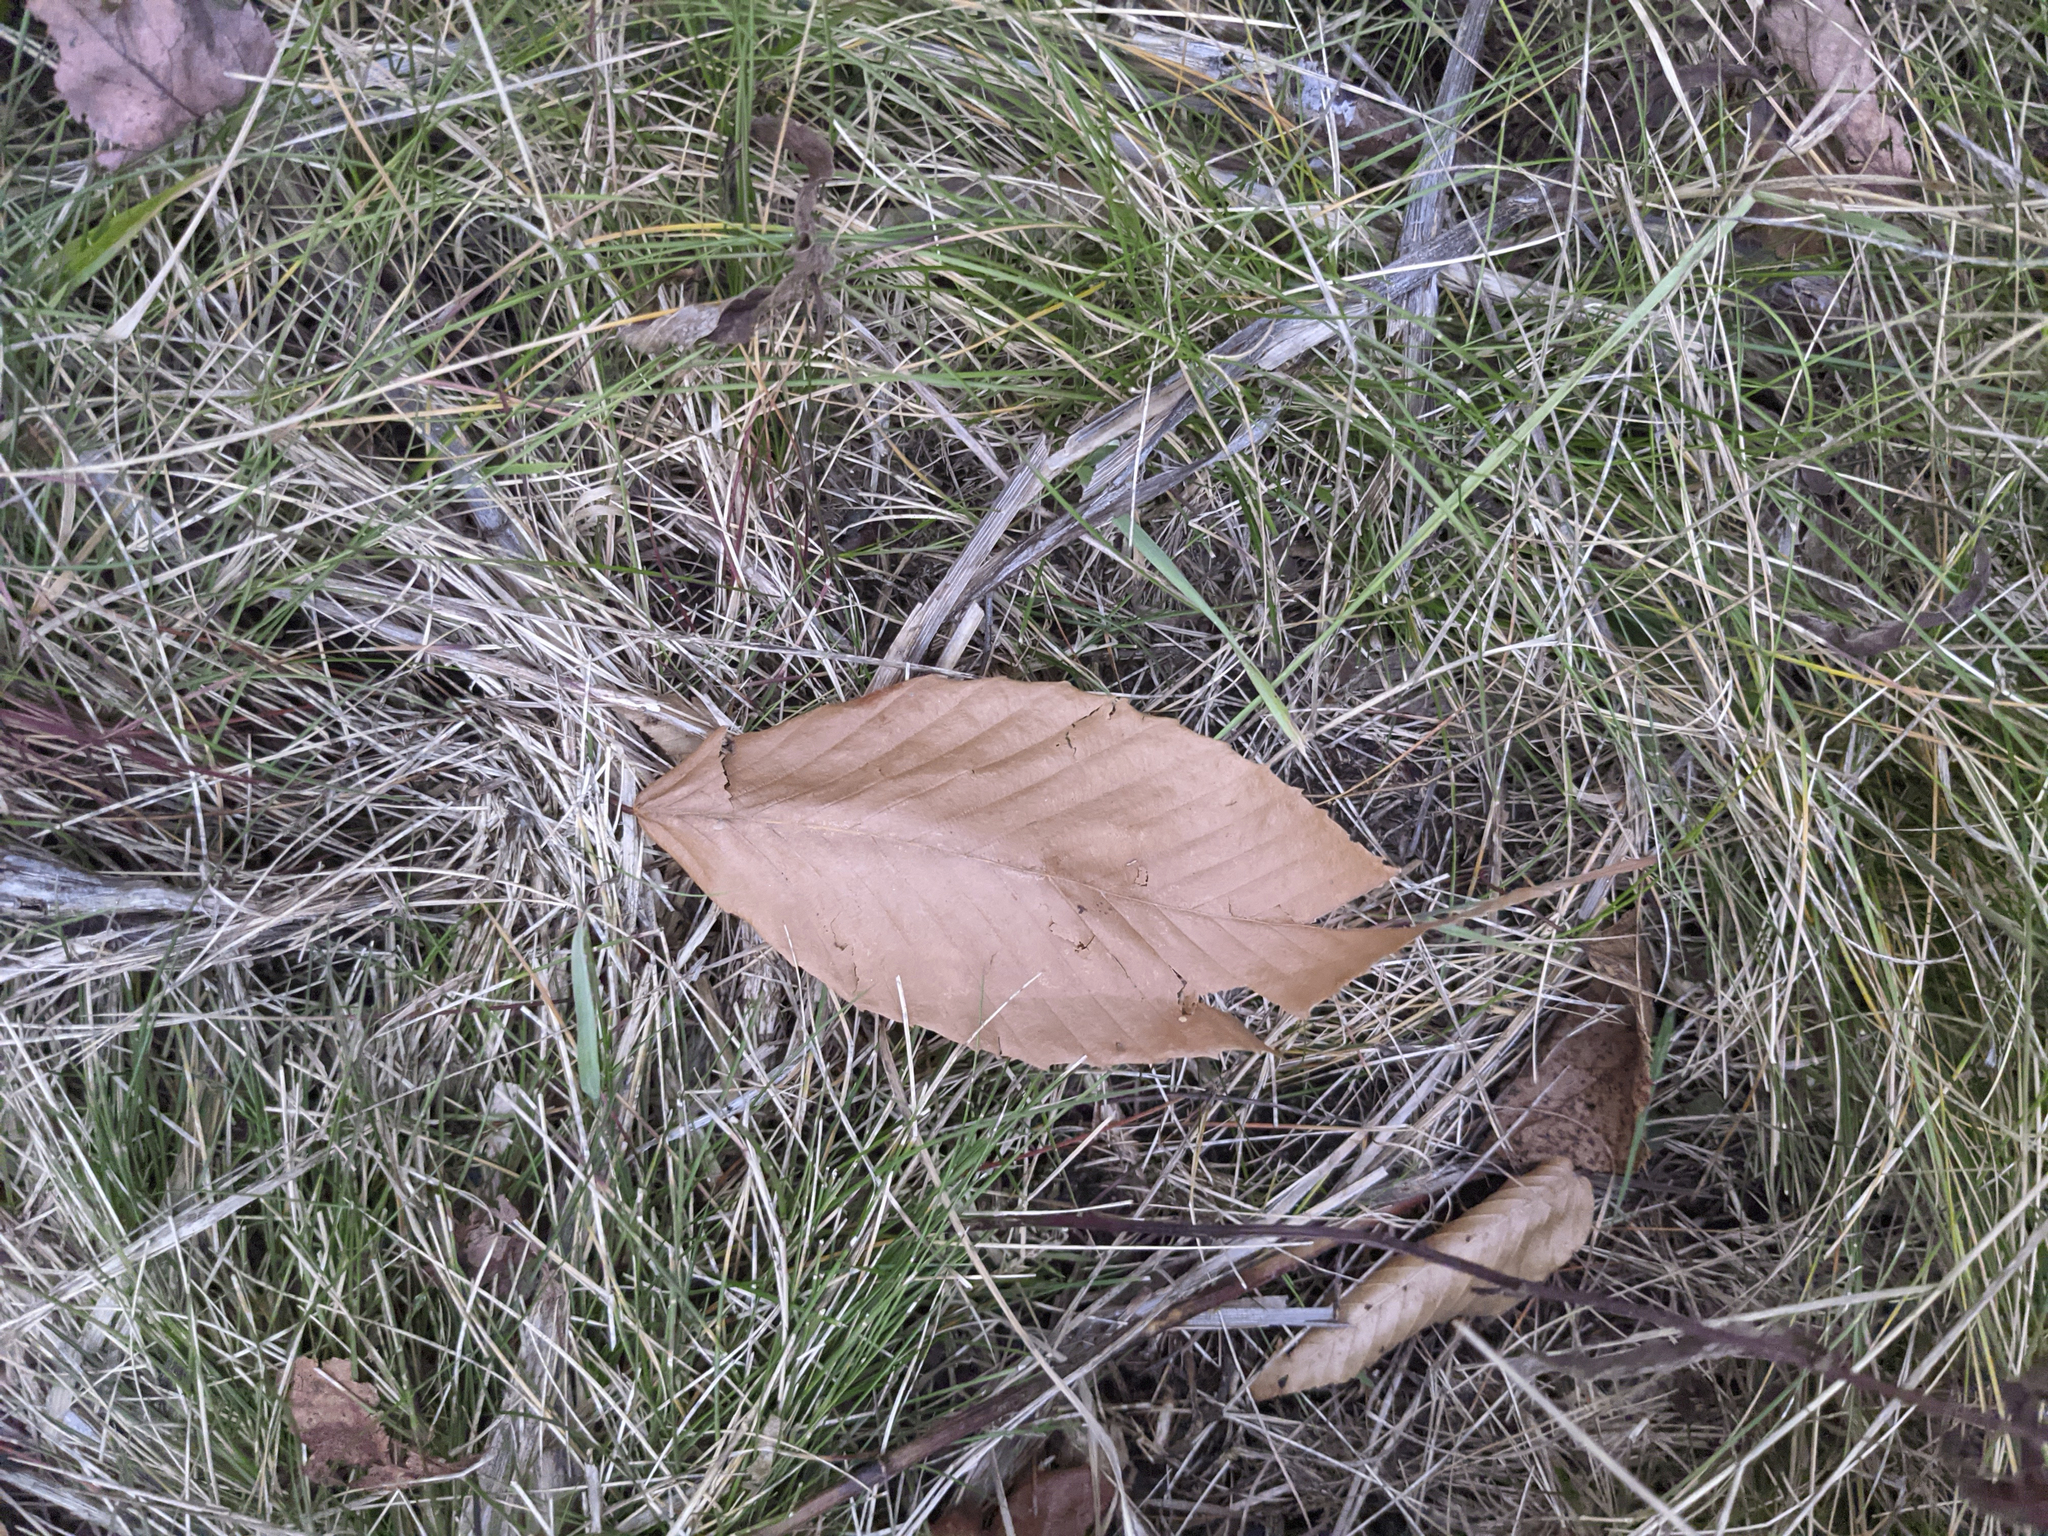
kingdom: Plantae
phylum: Tracheophyta
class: Magnoliopsida
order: Fagales
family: Fagaceae
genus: Fagus
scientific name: Fagus grandifolia
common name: American beech
